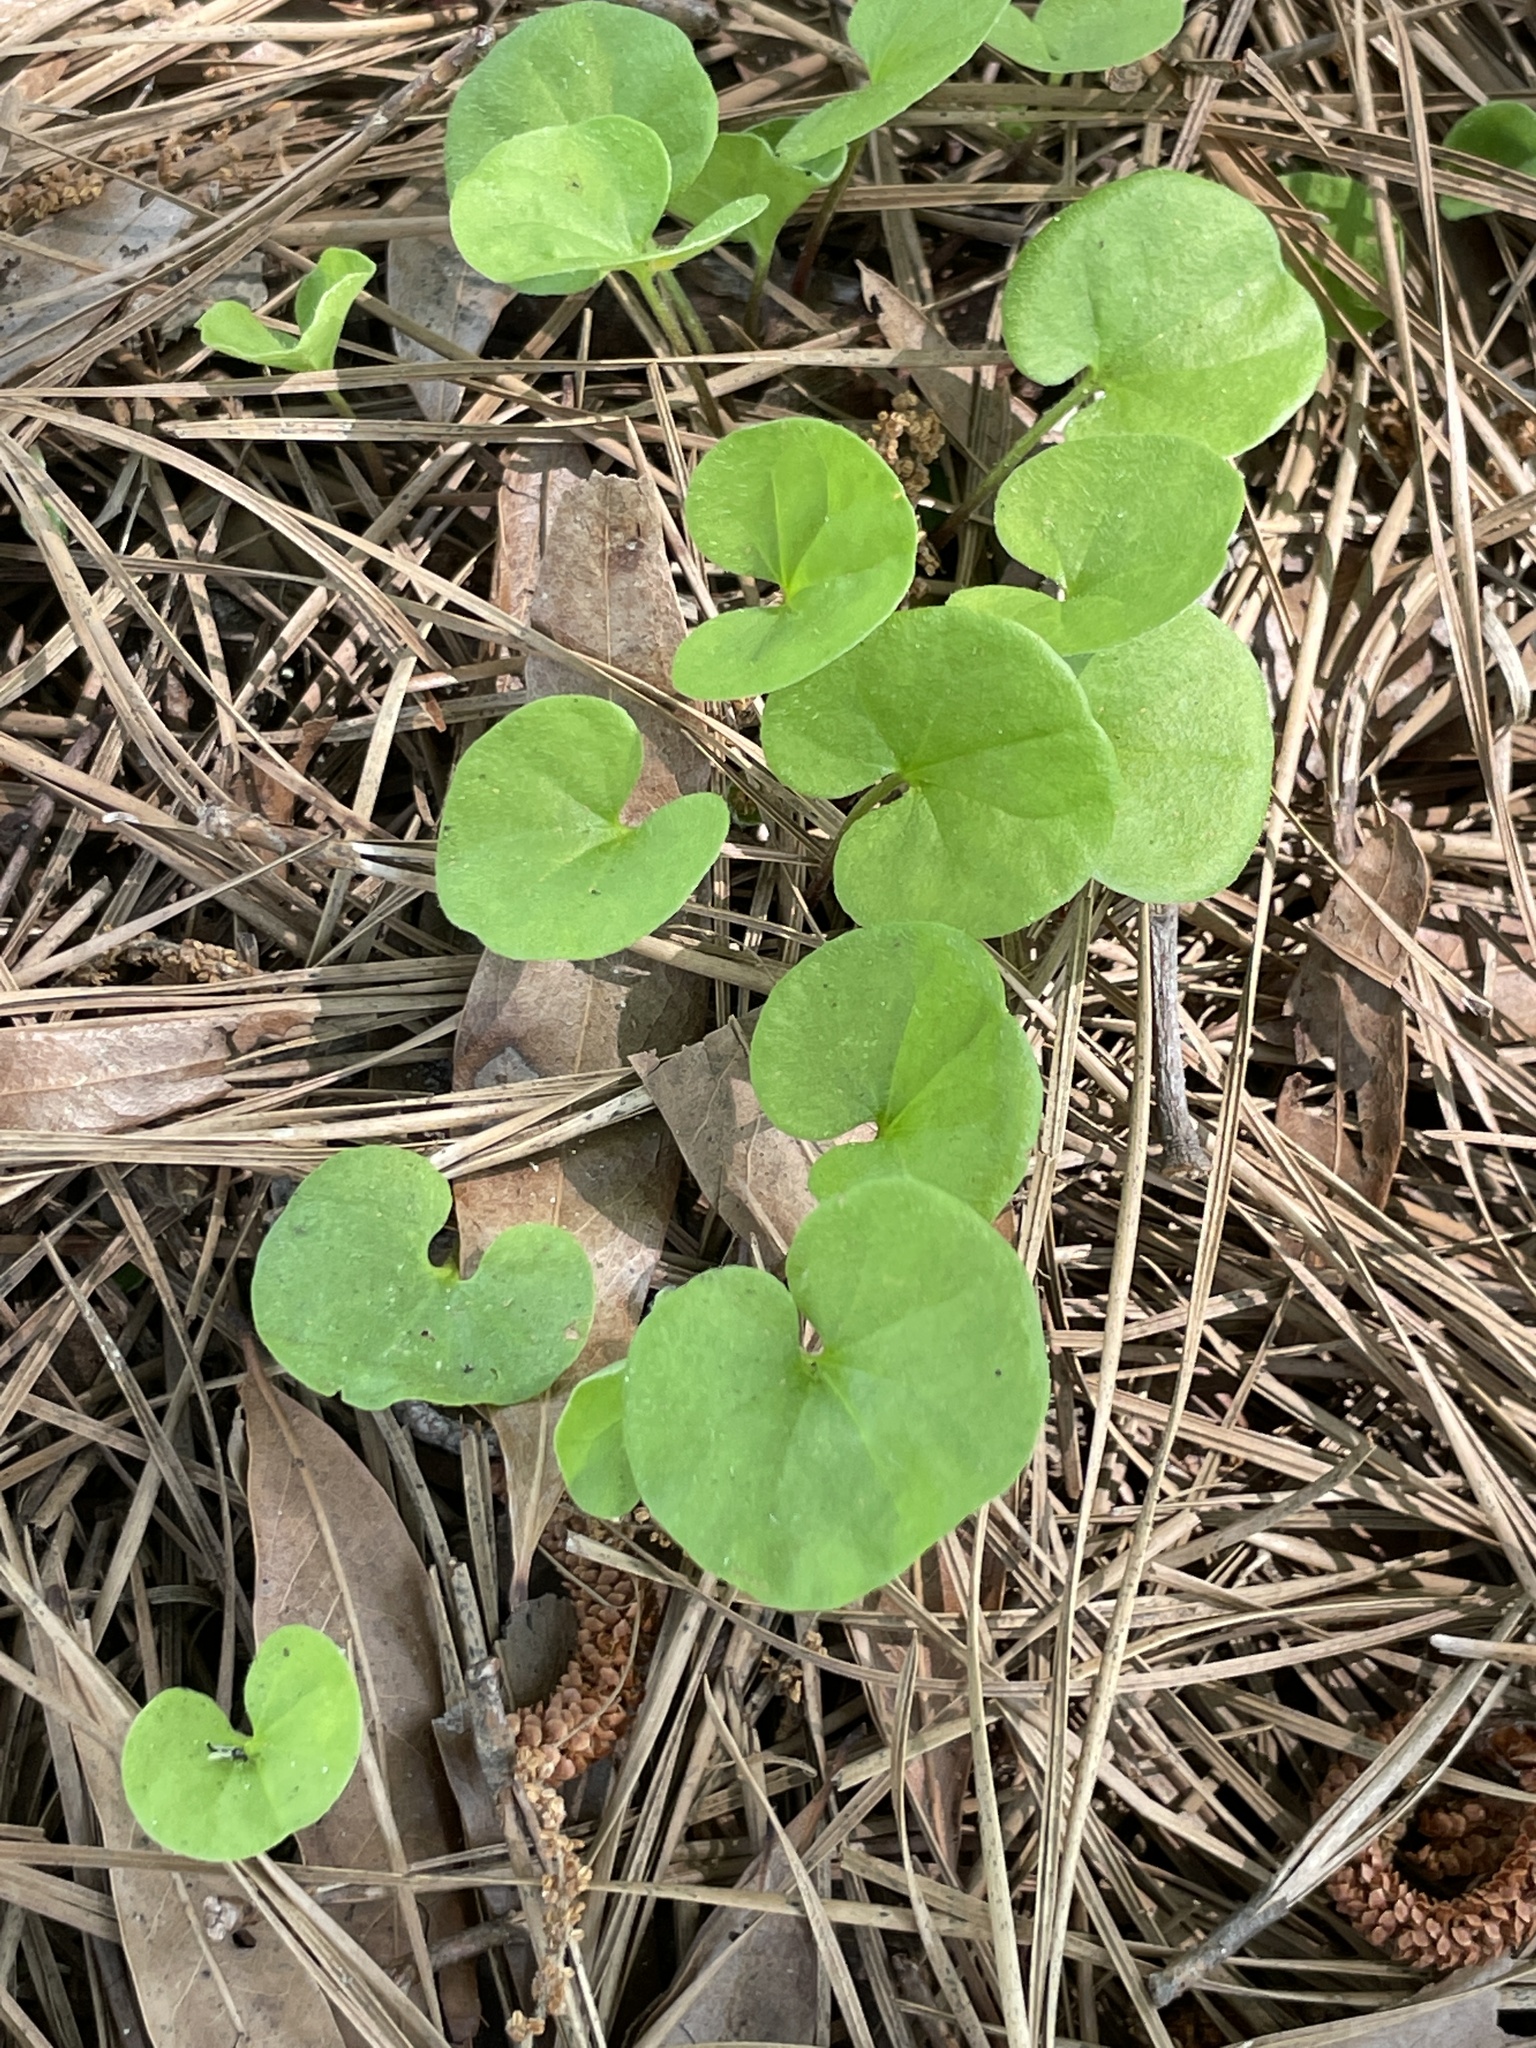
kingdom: Plantae
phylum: Tracheophyta
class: Magnoliopsida
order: Solanales
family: Convolvulaceae
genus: Dichondra
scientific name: Dichondra carolinensis
